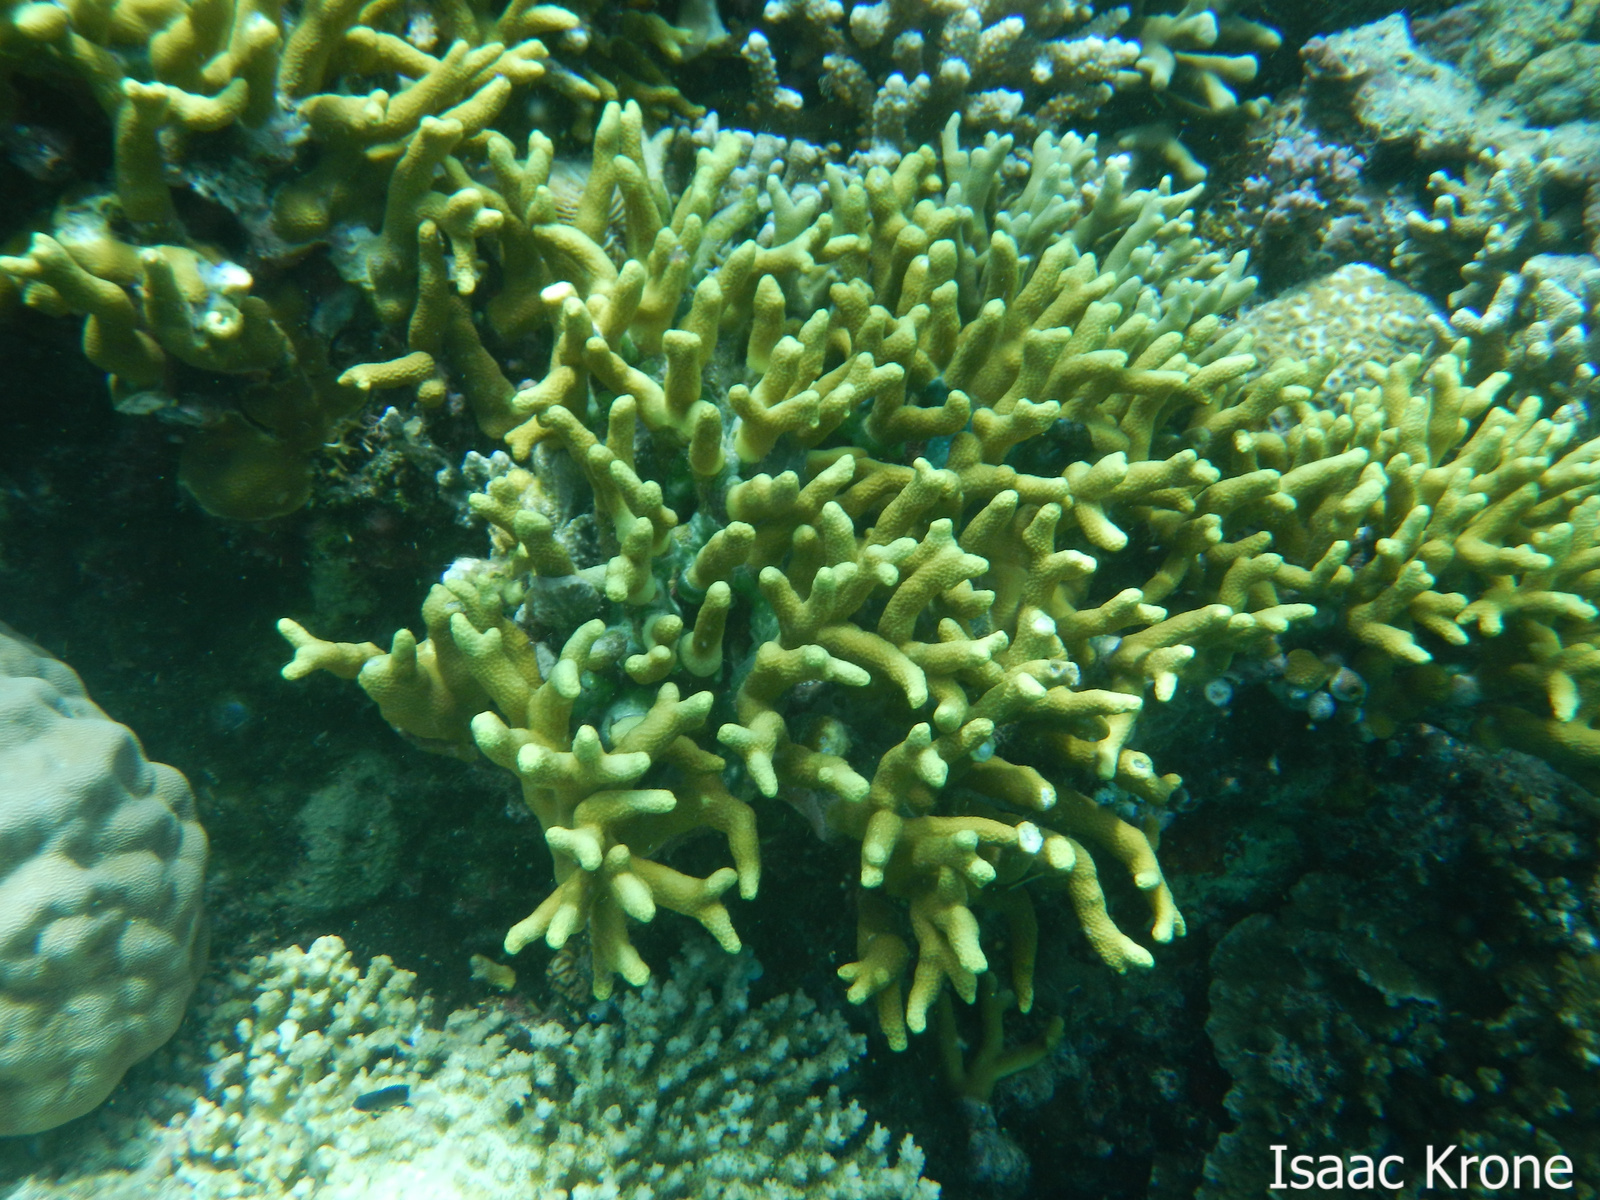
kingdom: Animalia
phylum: Cnidaria
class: Anthozoa
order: Scleractinia
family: Poritidae
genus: Porites
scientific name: Porites cylindrica
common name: Hump coral
